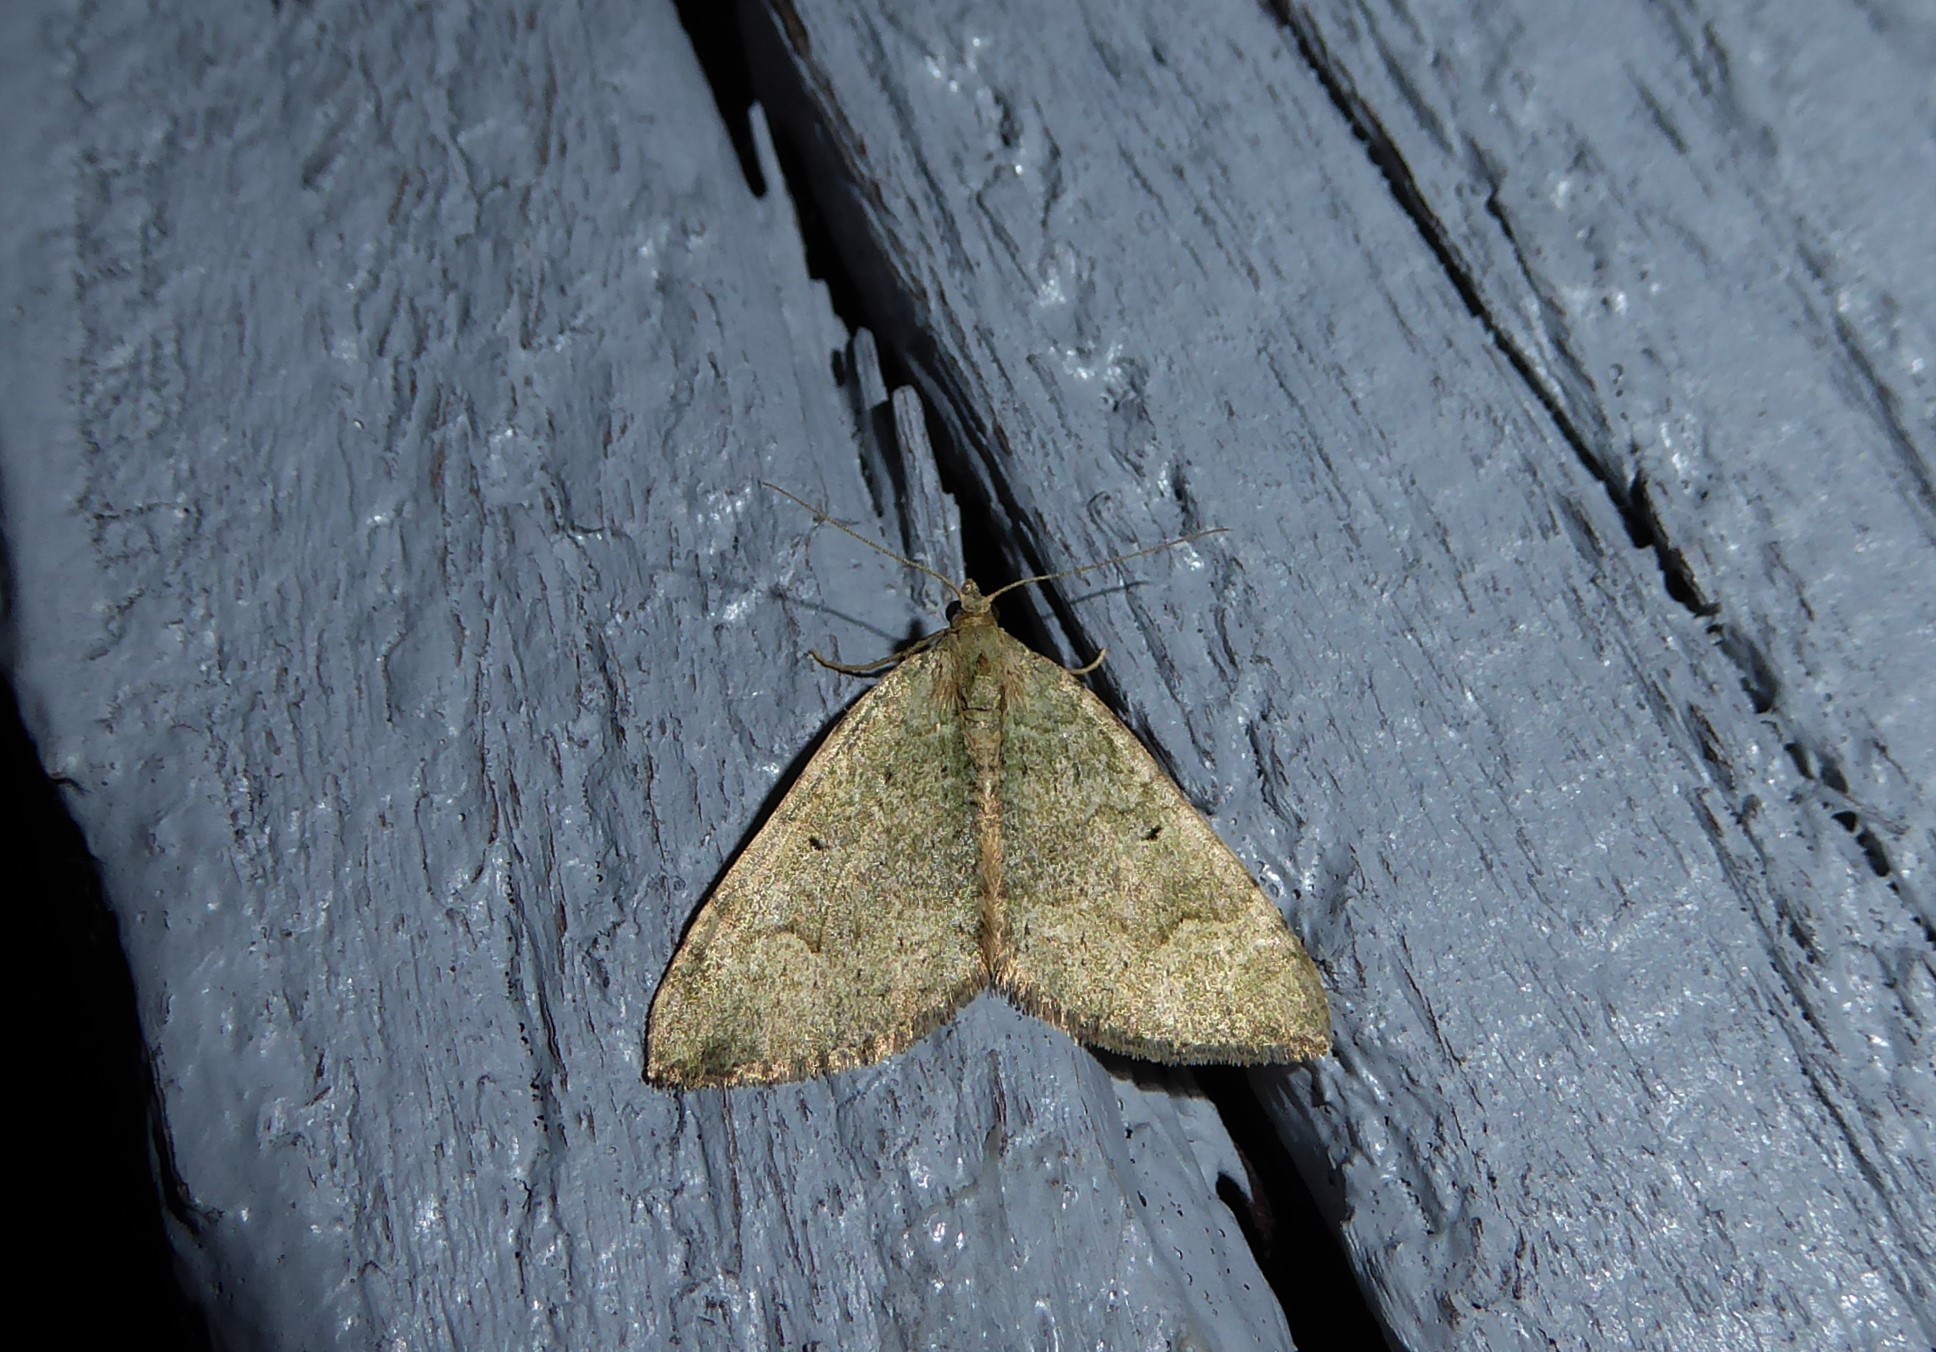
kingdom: Animalia
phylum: Arthropoda
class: Insecta
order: Lepidoptera
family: Geometridae
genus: Epyaxa
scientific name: Epyaxa rosearia
